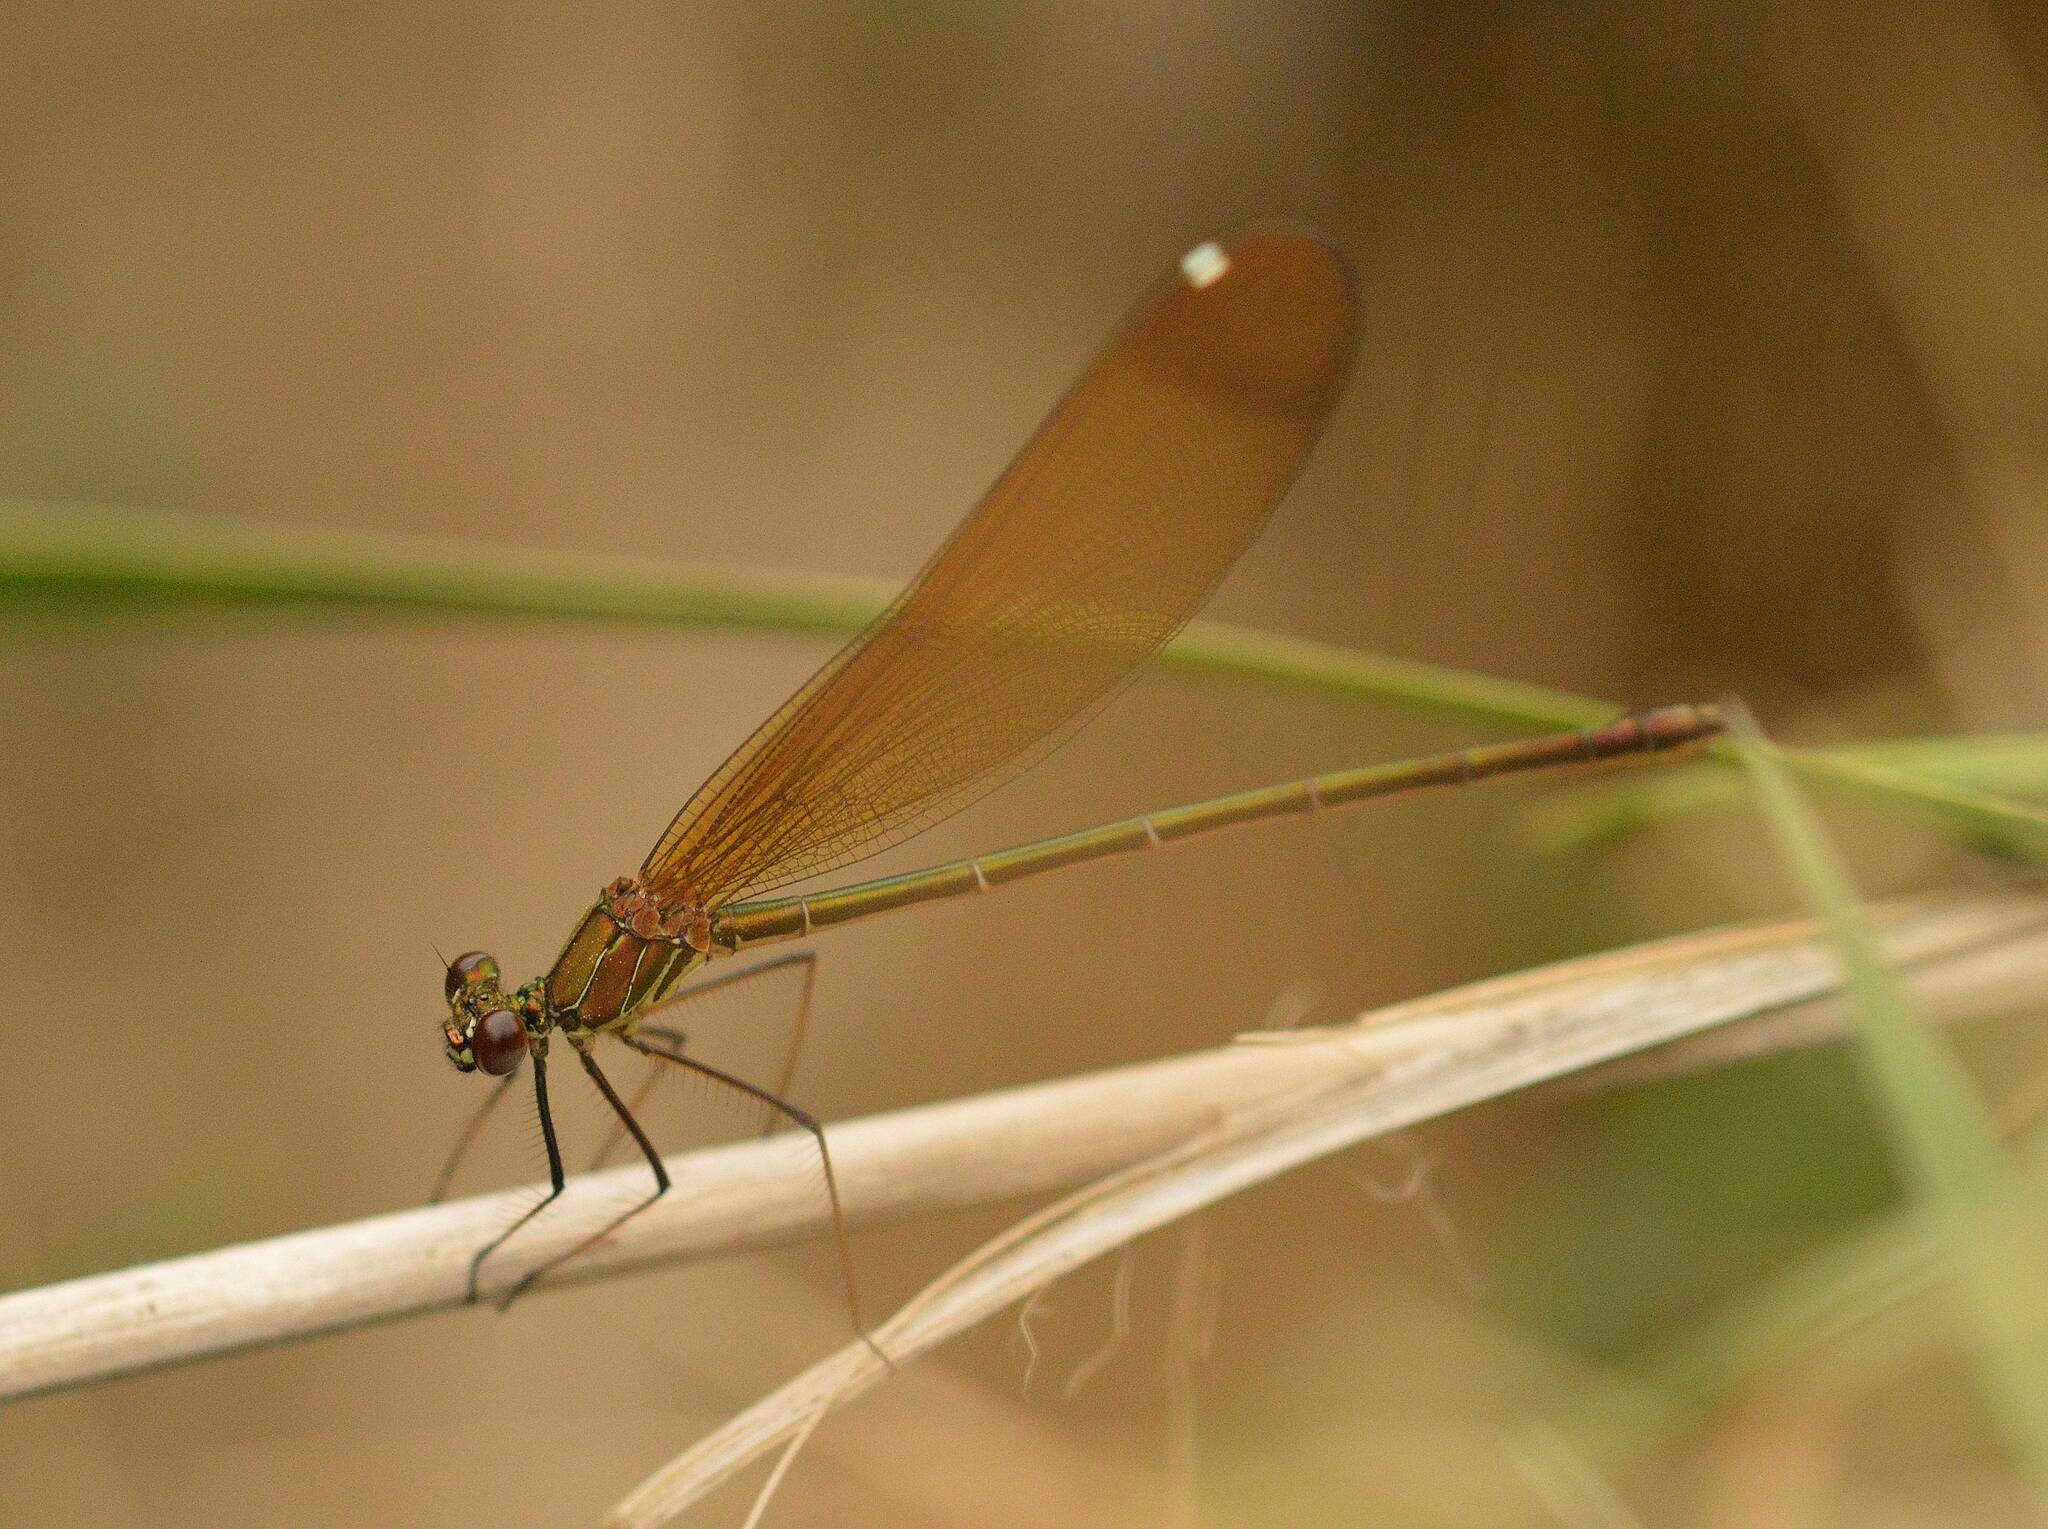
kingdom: Animalia
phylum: Arthropoda
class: Insecta
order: Odonata
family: Calopterygidae
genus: Calopteryx
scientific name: Calopteryx haemorrhoidalis
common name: Copper demoiselle
